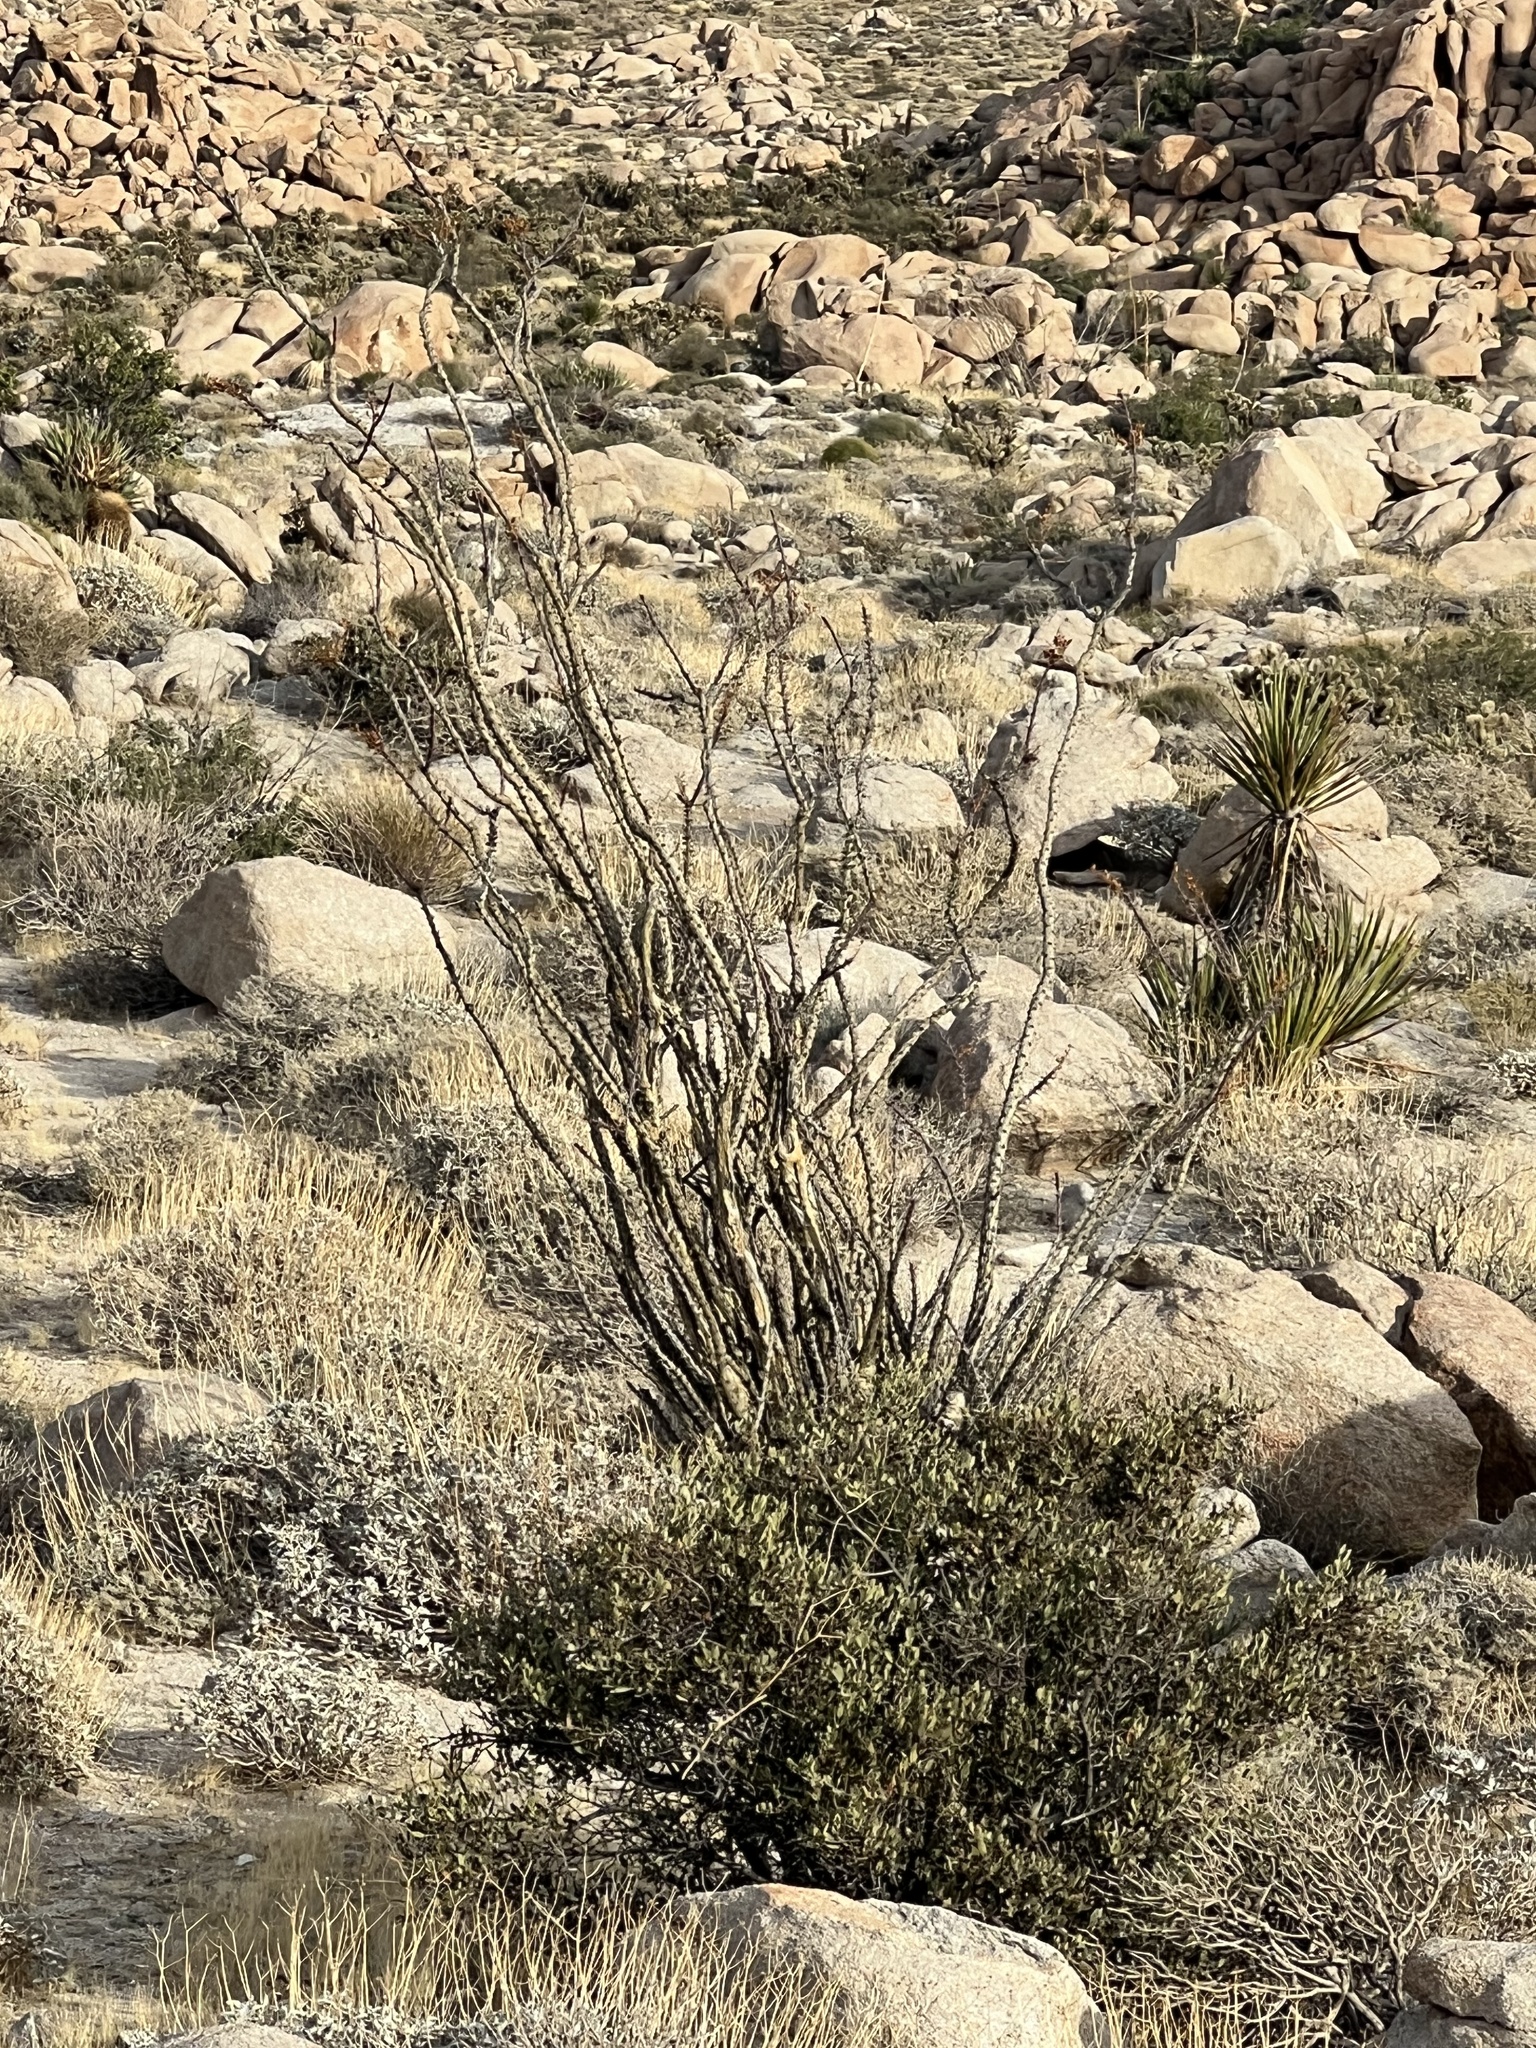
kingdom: Plantae
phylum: Tracheophyta
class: Magnoliopsida
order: Ericales
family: Fouquieriaceae
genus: Fouquieria
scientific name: Fouquieria splendens
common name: Vine-cactus
